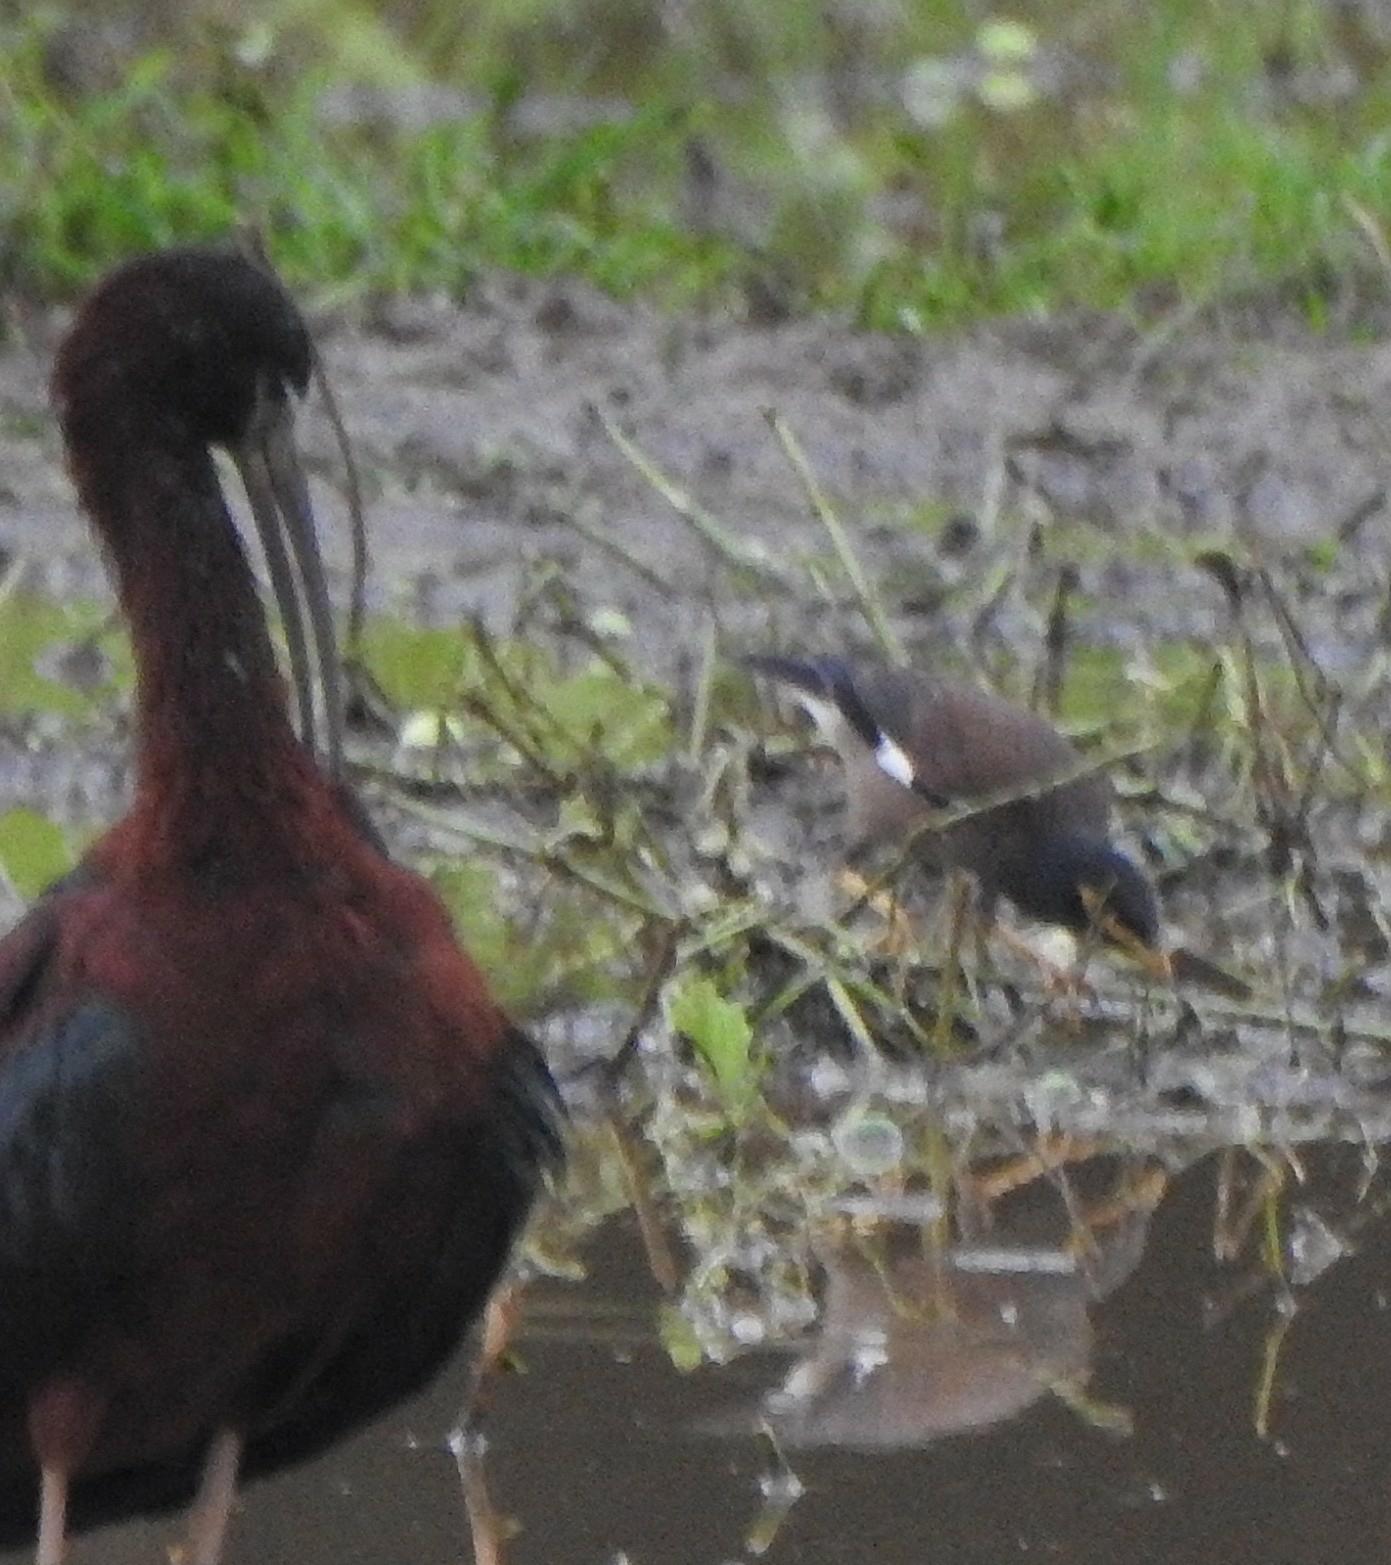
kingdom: Animalia
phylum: Chordata
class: Aves
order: Passeriformes
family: Sturnidae
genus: Acridotheres
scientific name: Acridotheres tristis
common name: Common myna
